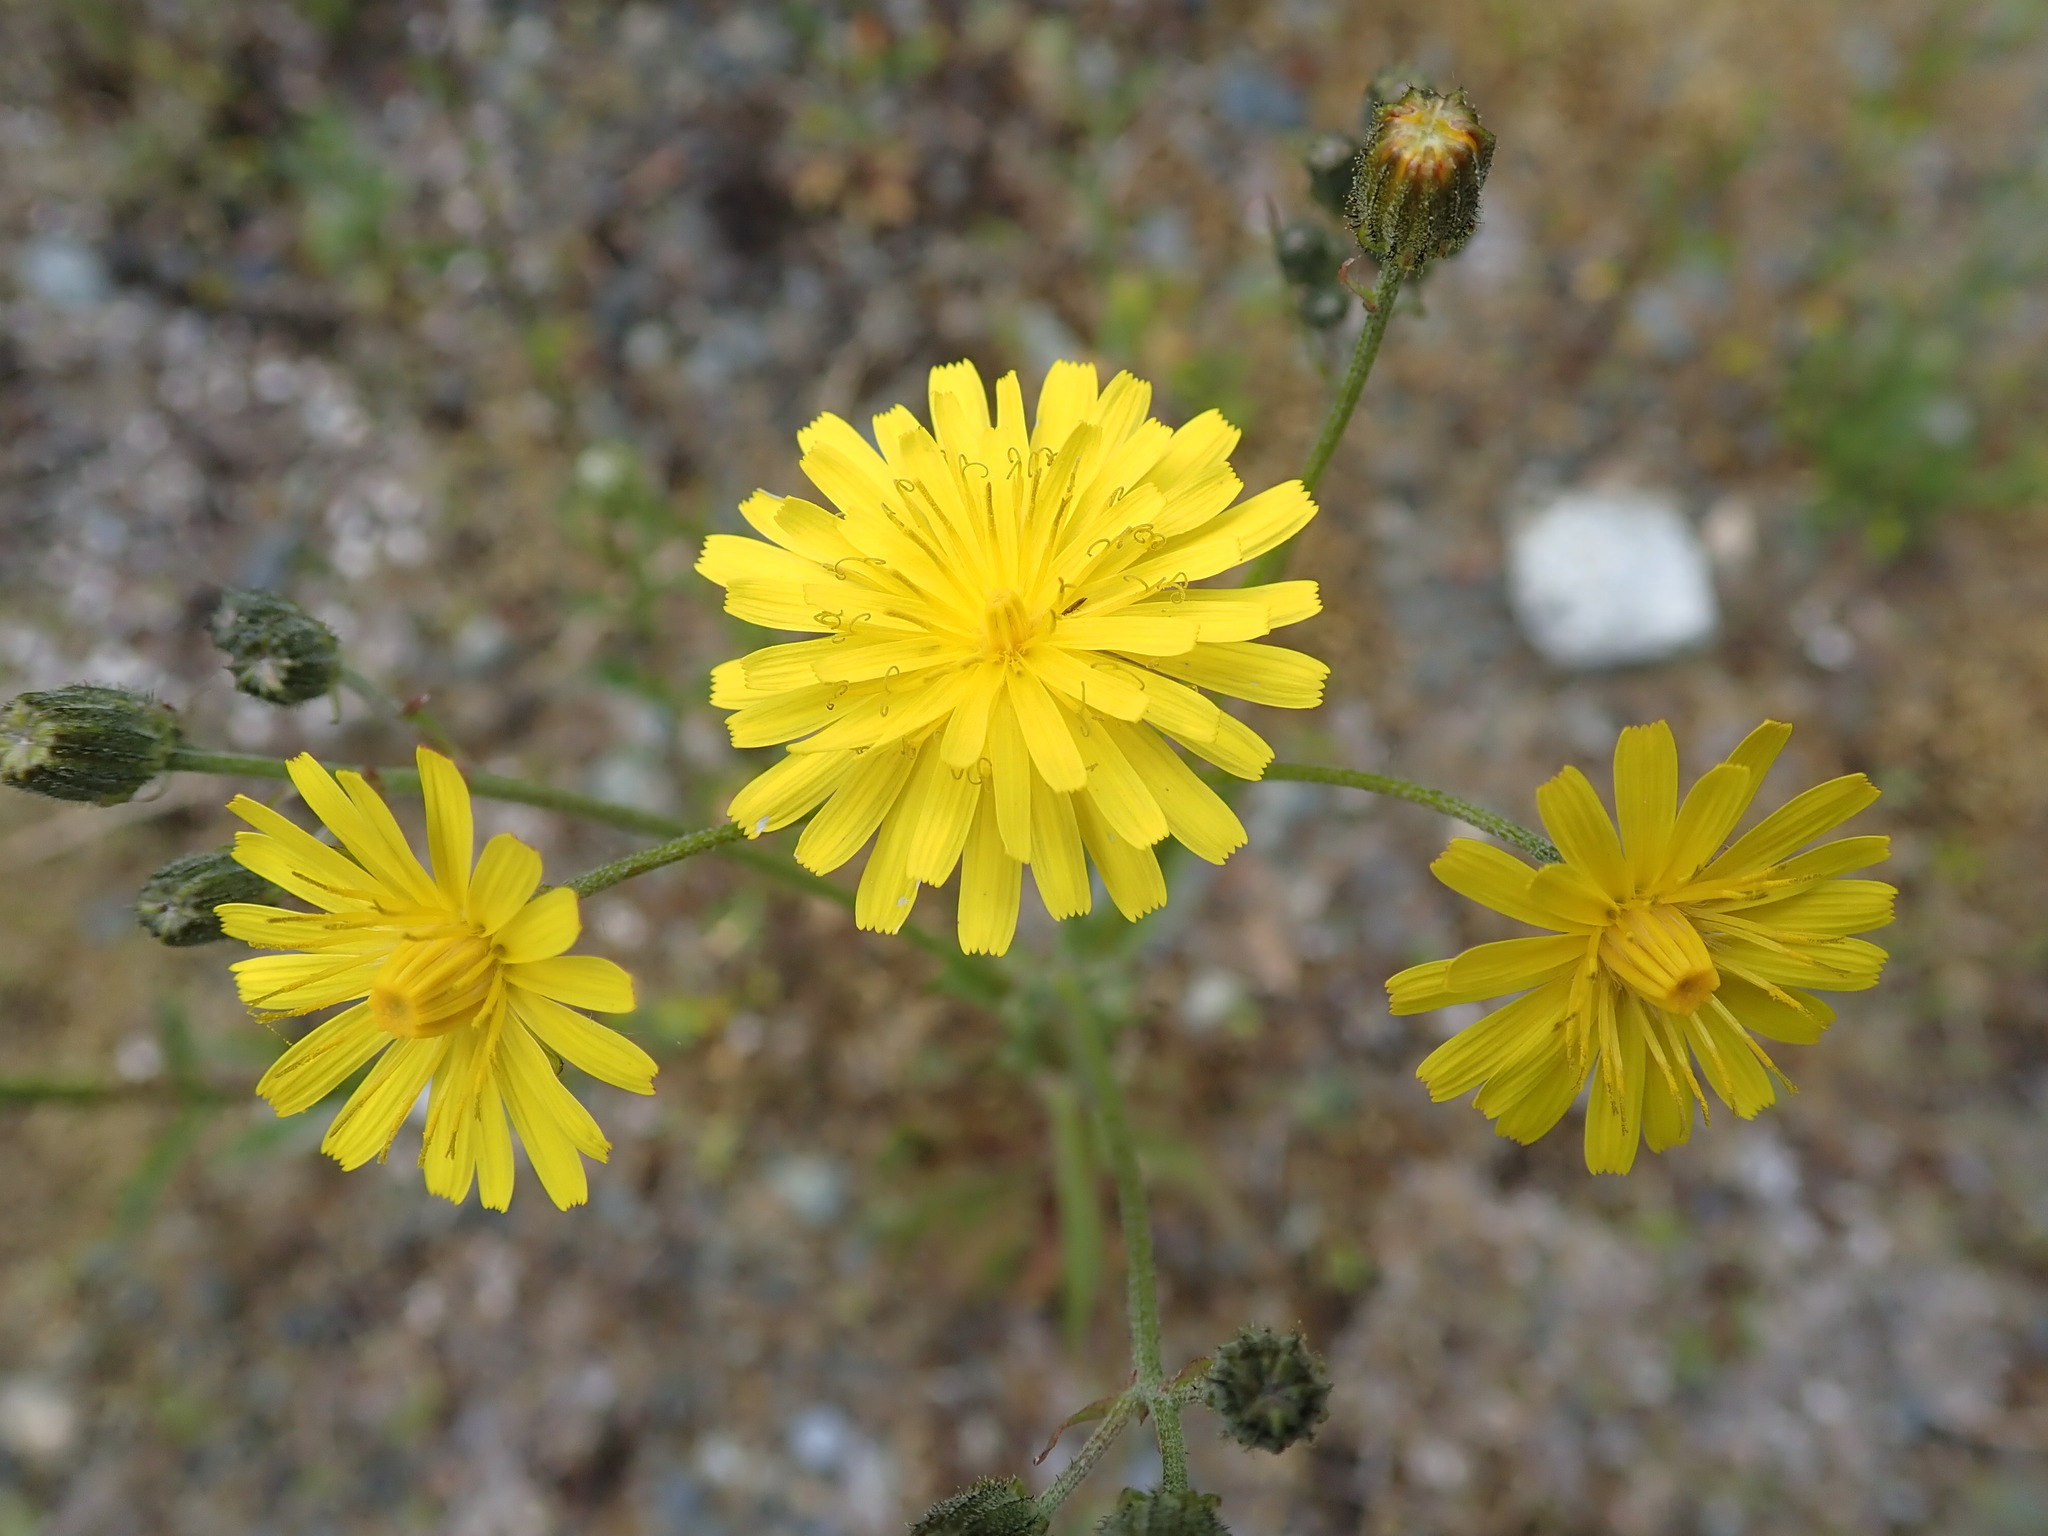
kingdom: Plantae
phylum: Tracheophyta
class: Magnoliopsida
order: Asterales
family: Asteraceae
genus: Crepis
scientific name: Crepis capillaris
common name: Smooth hawksbeard
